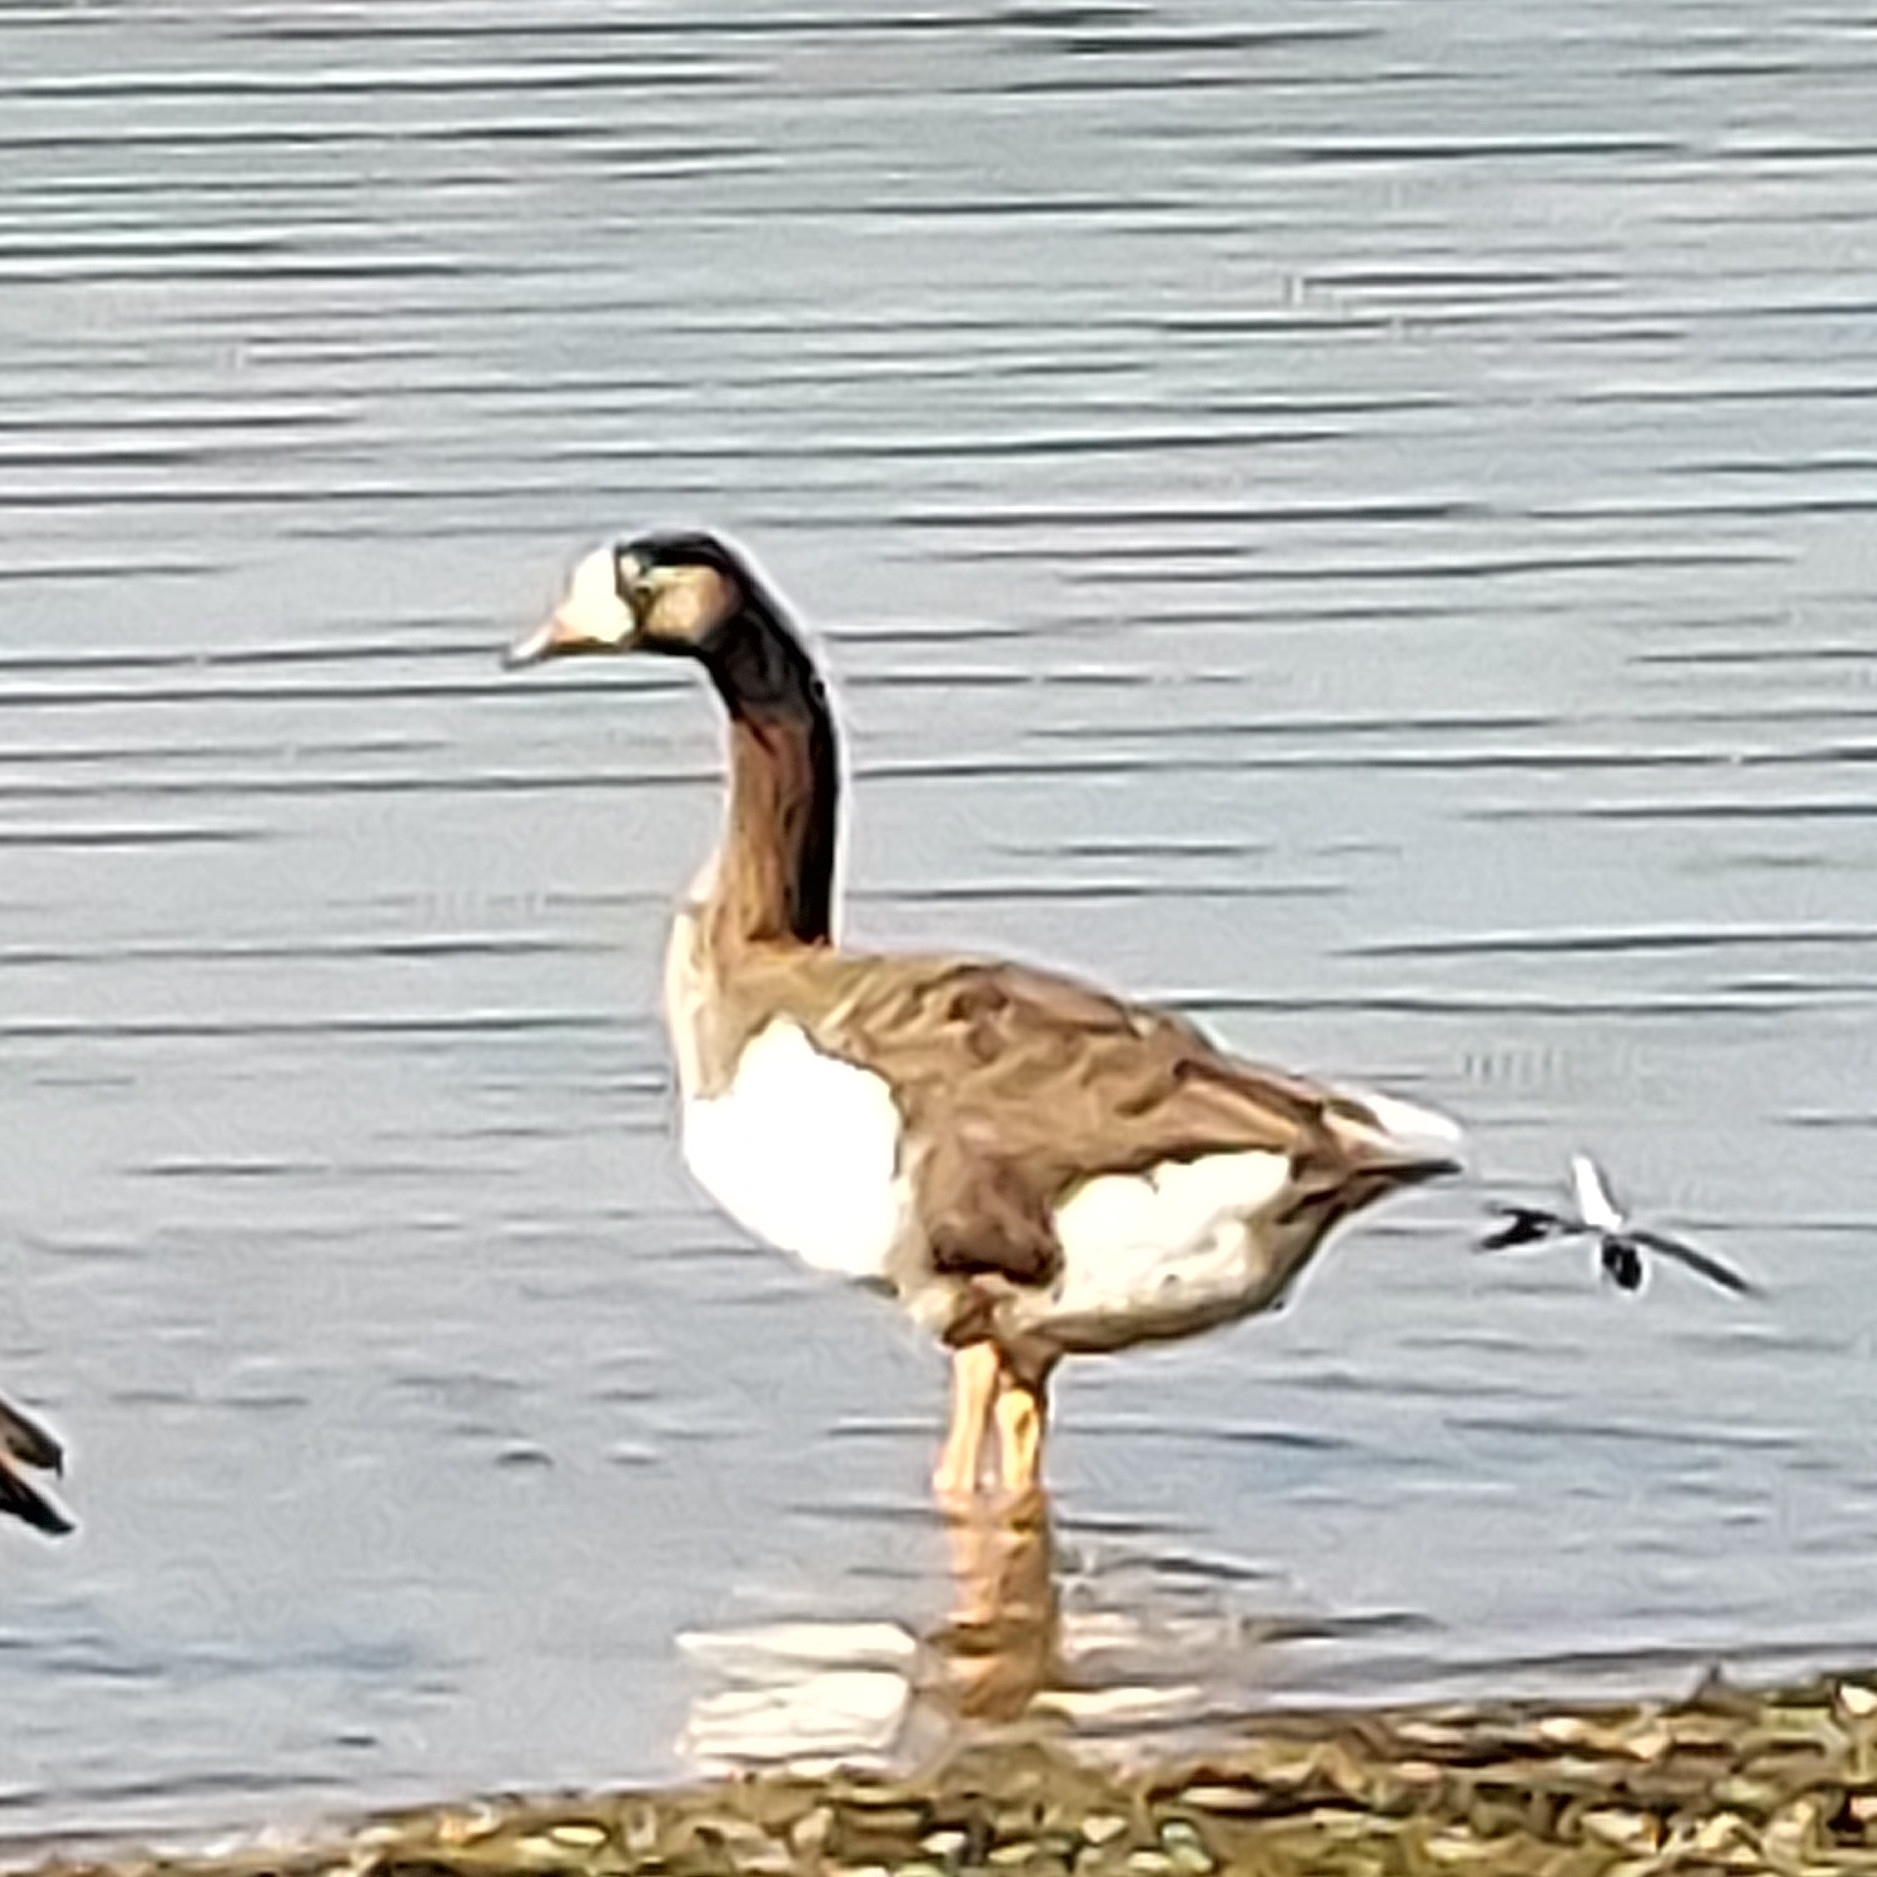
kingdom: Animalia
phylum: Chordata
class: Aves
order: Anseriformes
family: Anatidae
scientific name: Anatidae
